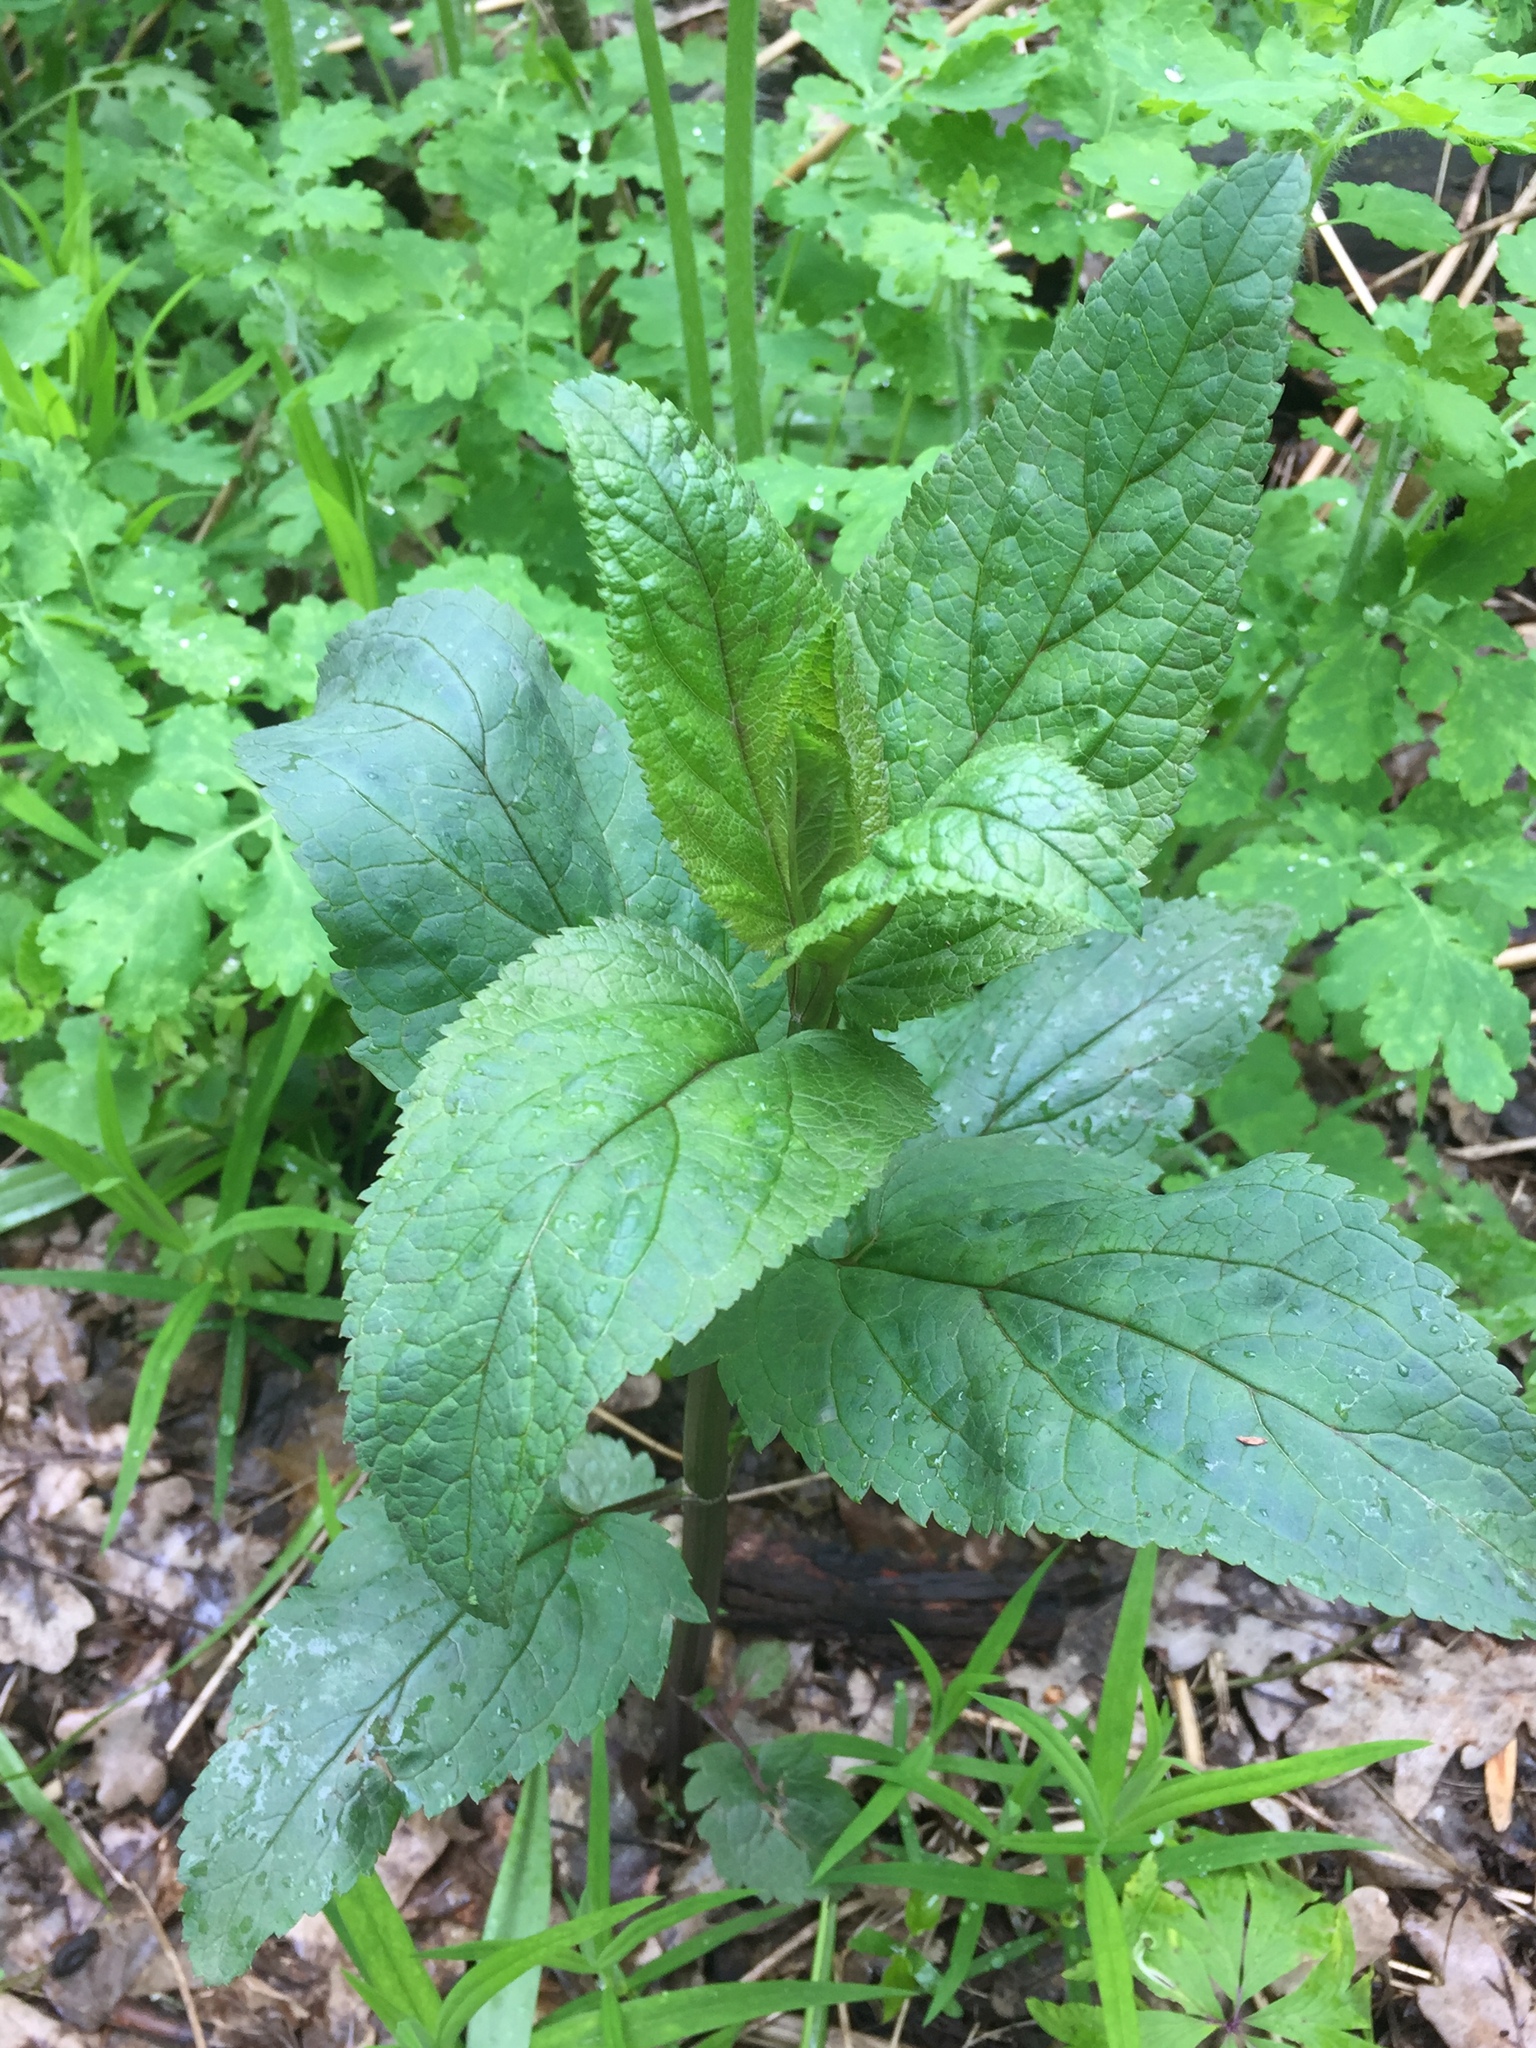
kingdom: Plantae
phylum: Tracheophyta
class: Magnoliopsida
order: Lamiales
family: Scrophulariaceae
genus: Scrophularia
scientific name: Scrophularia nodosa
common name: Common figwort
